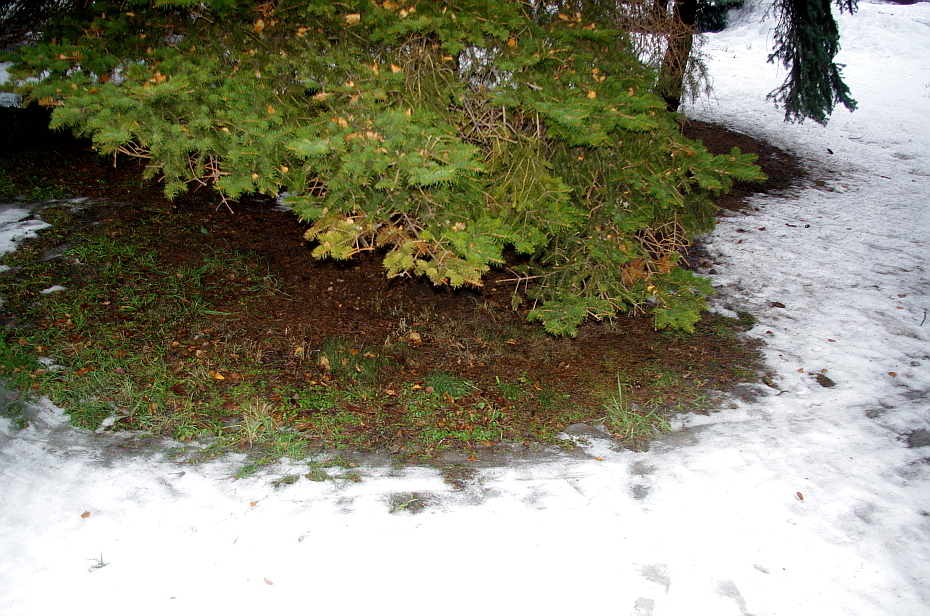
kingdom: Plantae
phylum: Tracheophyta
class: Magnoliopsida
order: Lamiales
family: Lamiaceae
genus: Glechoma
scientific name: Glechoma hederacea
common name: Ground ivy
